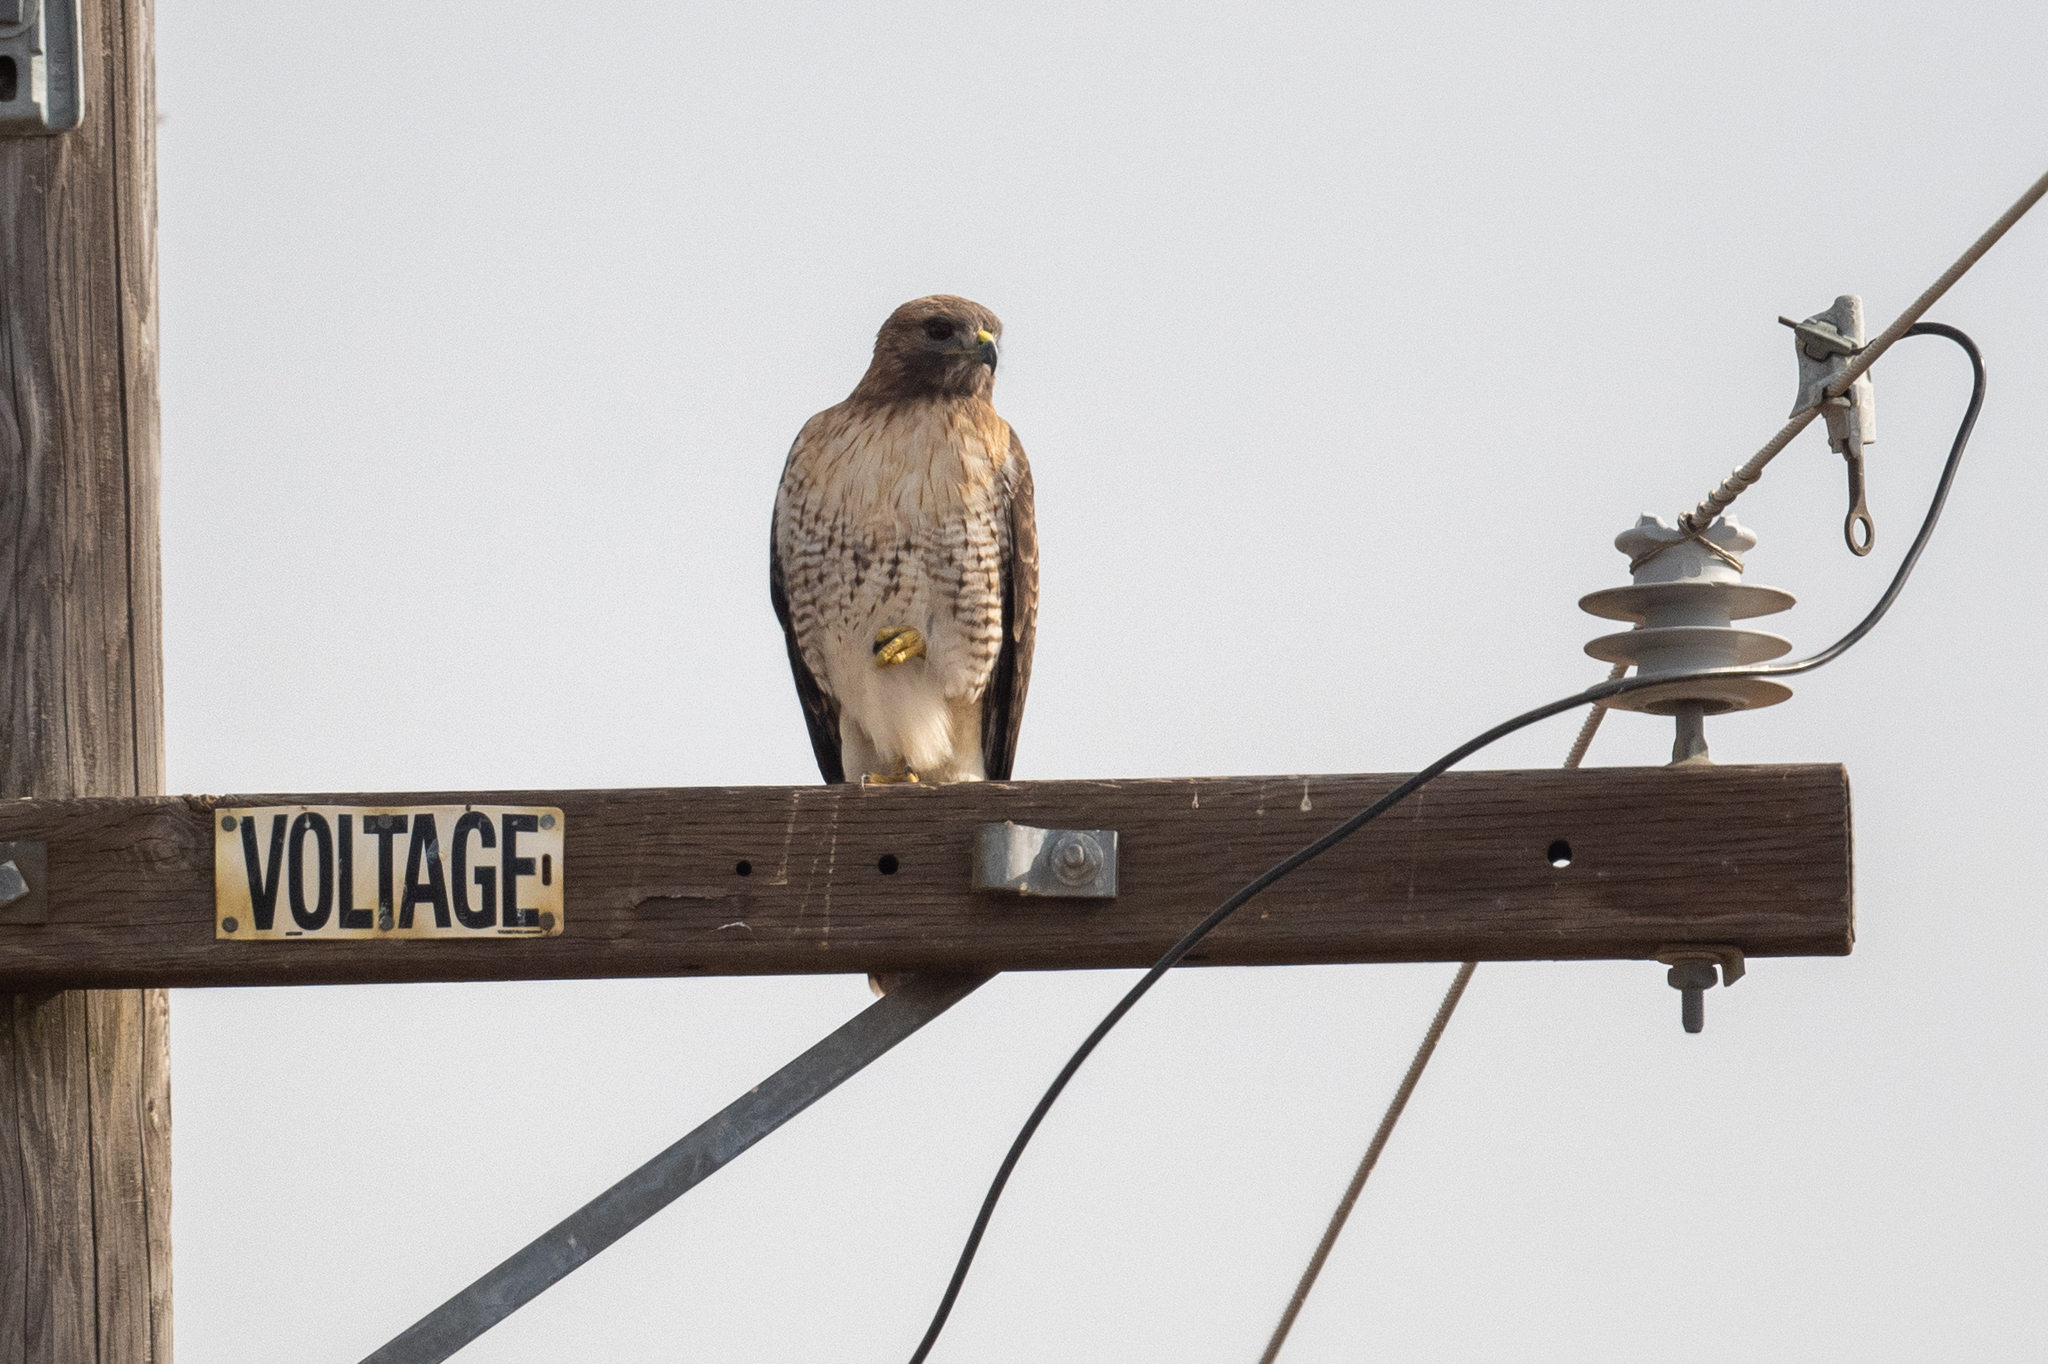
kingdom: Animalia
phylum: Chordata
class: Aves
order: Accipitriformes
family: Accipitridae
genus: Buteo
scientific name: Buteo jamaicensis
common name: Red-tailed hawk
